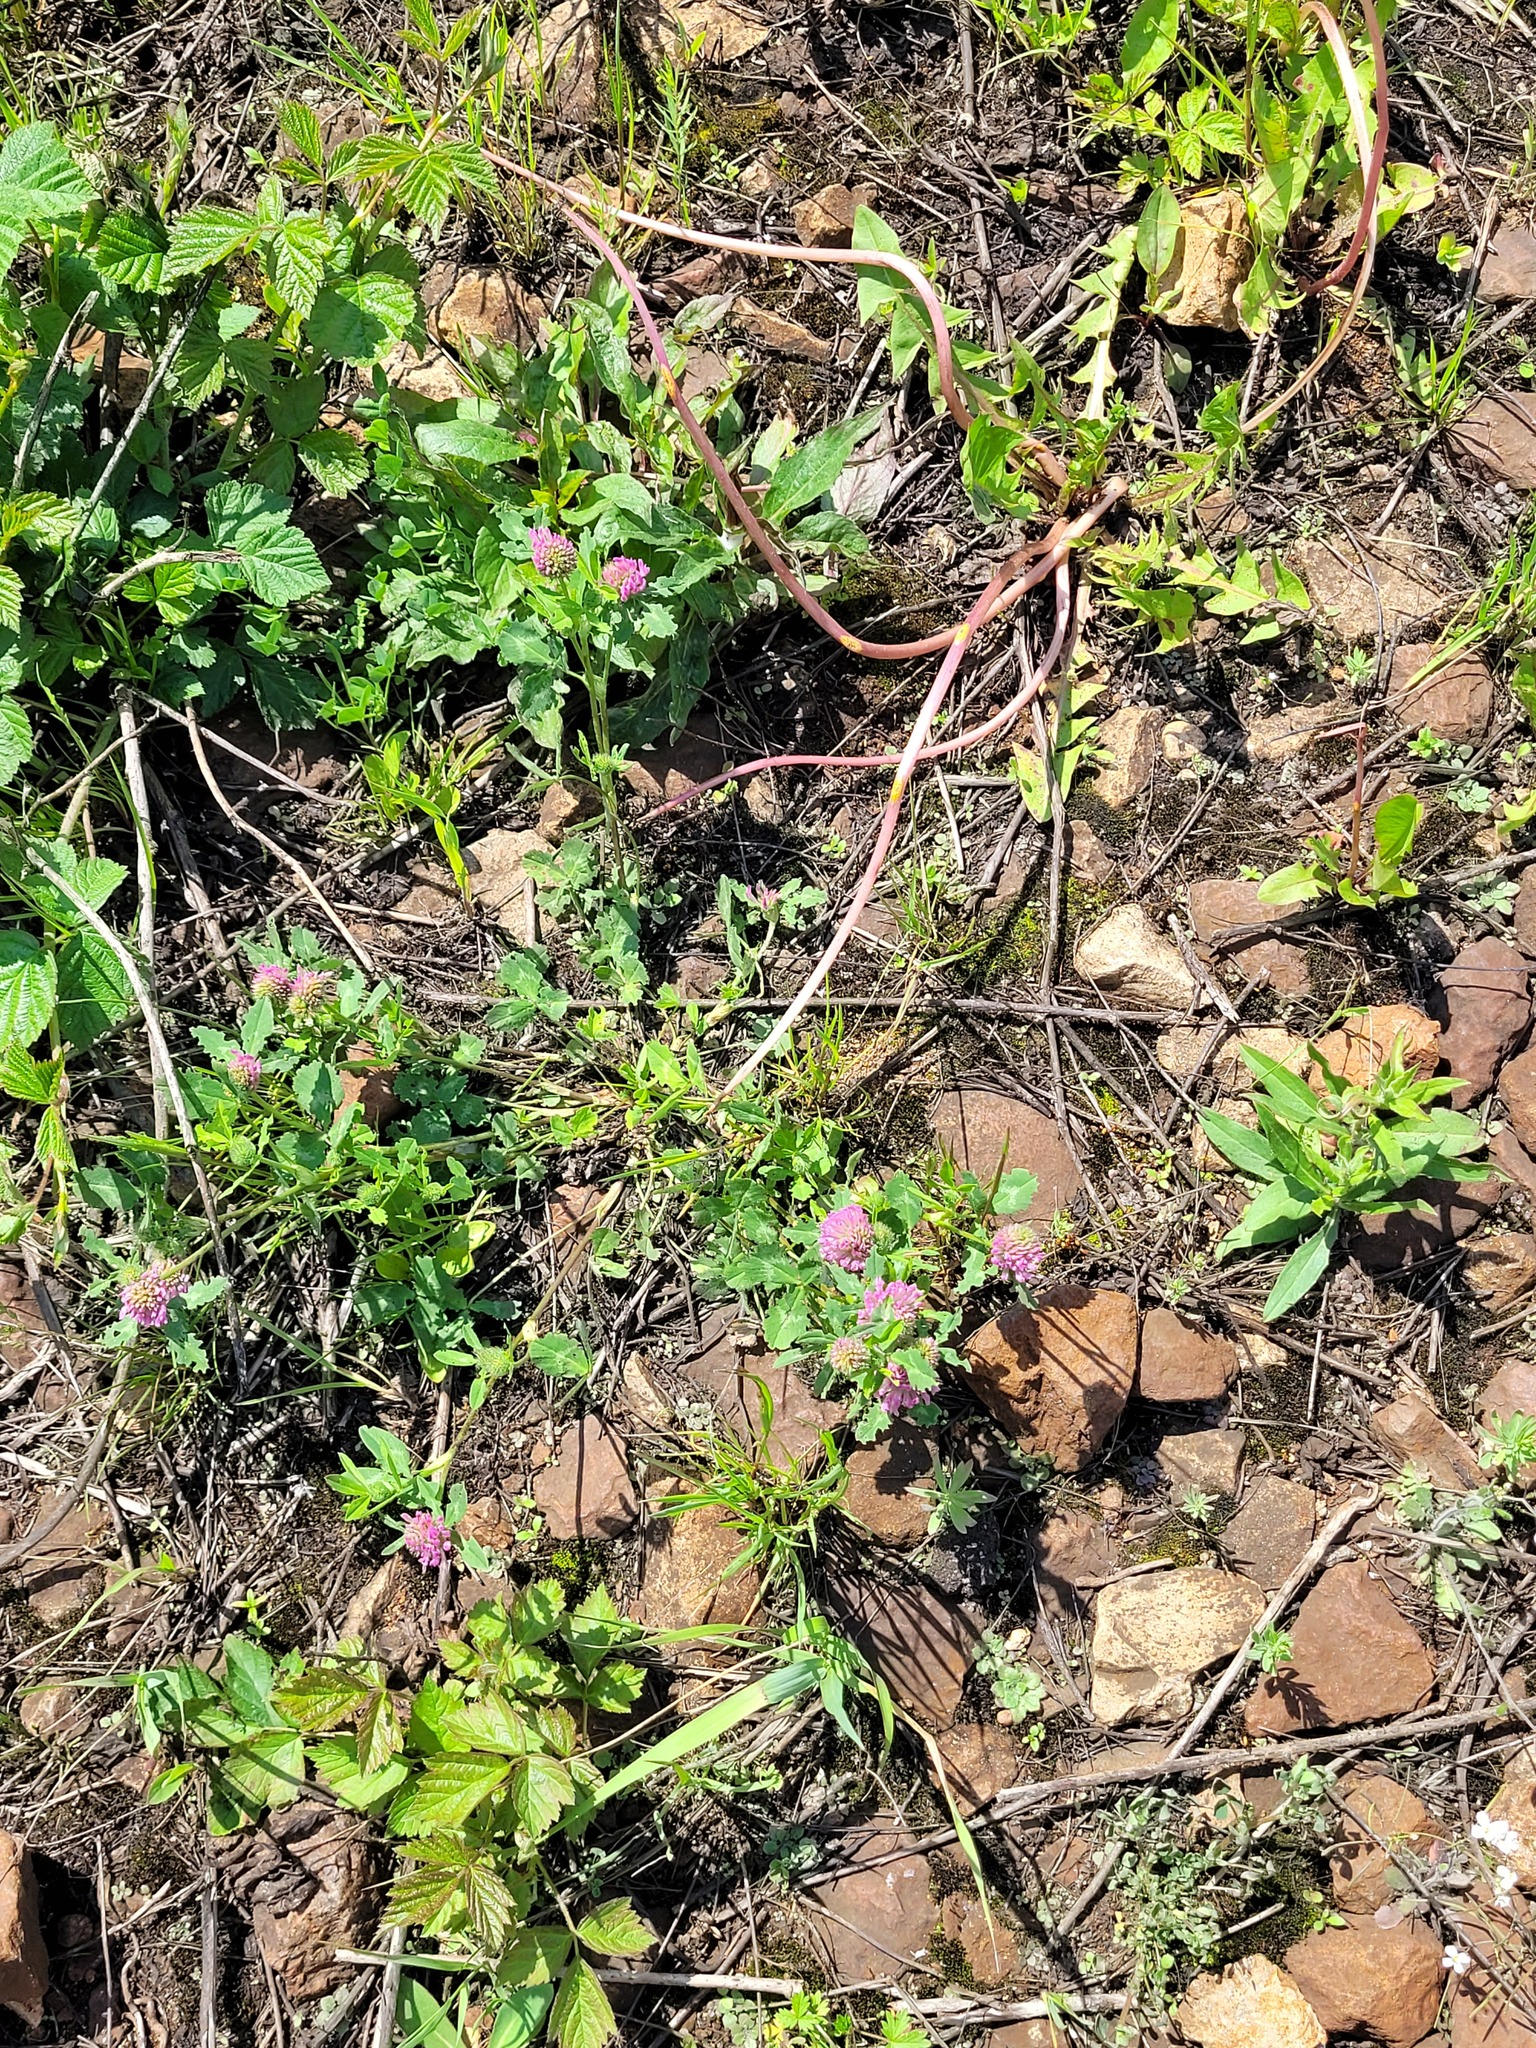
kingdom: Plantae
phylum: Tracheophyta
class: Magnoliopsida
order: Fabales
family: Fabaceae
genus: Trifolium
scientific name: Trifolium pratense
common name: Red clover
